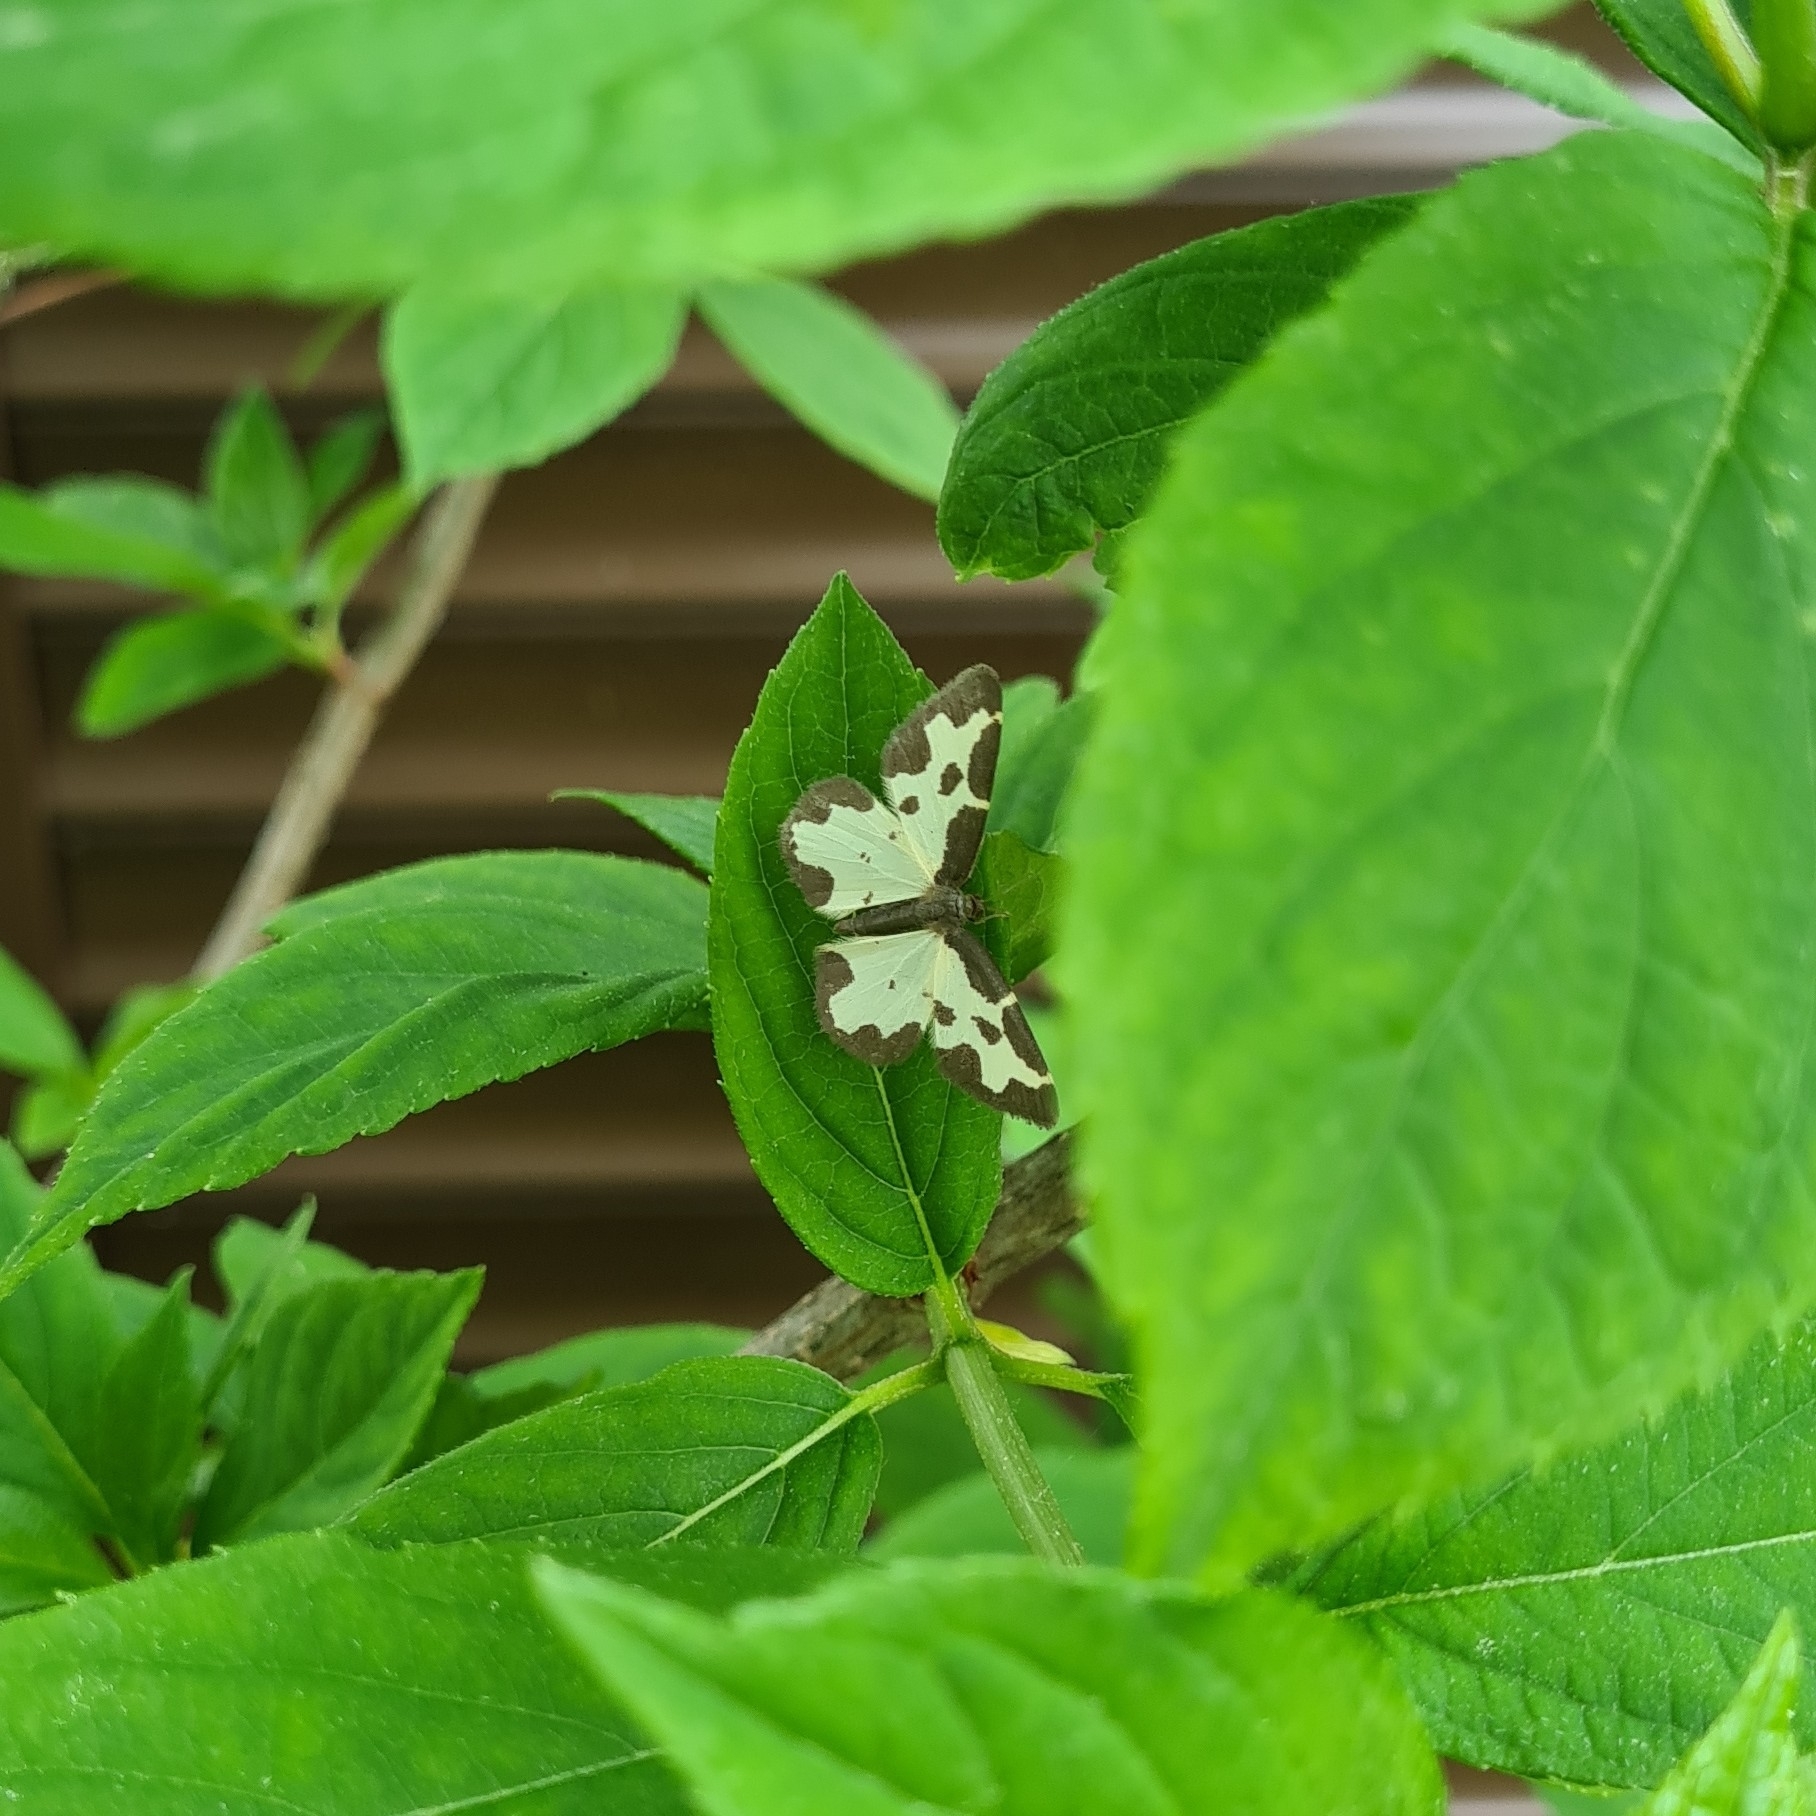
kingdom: Animalia
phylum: Arthropoda
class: Insecta
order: Lepidoptera
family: Geometridae
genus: Lomaspilis
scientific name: Lomaspilis marginata
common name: Clouded border
